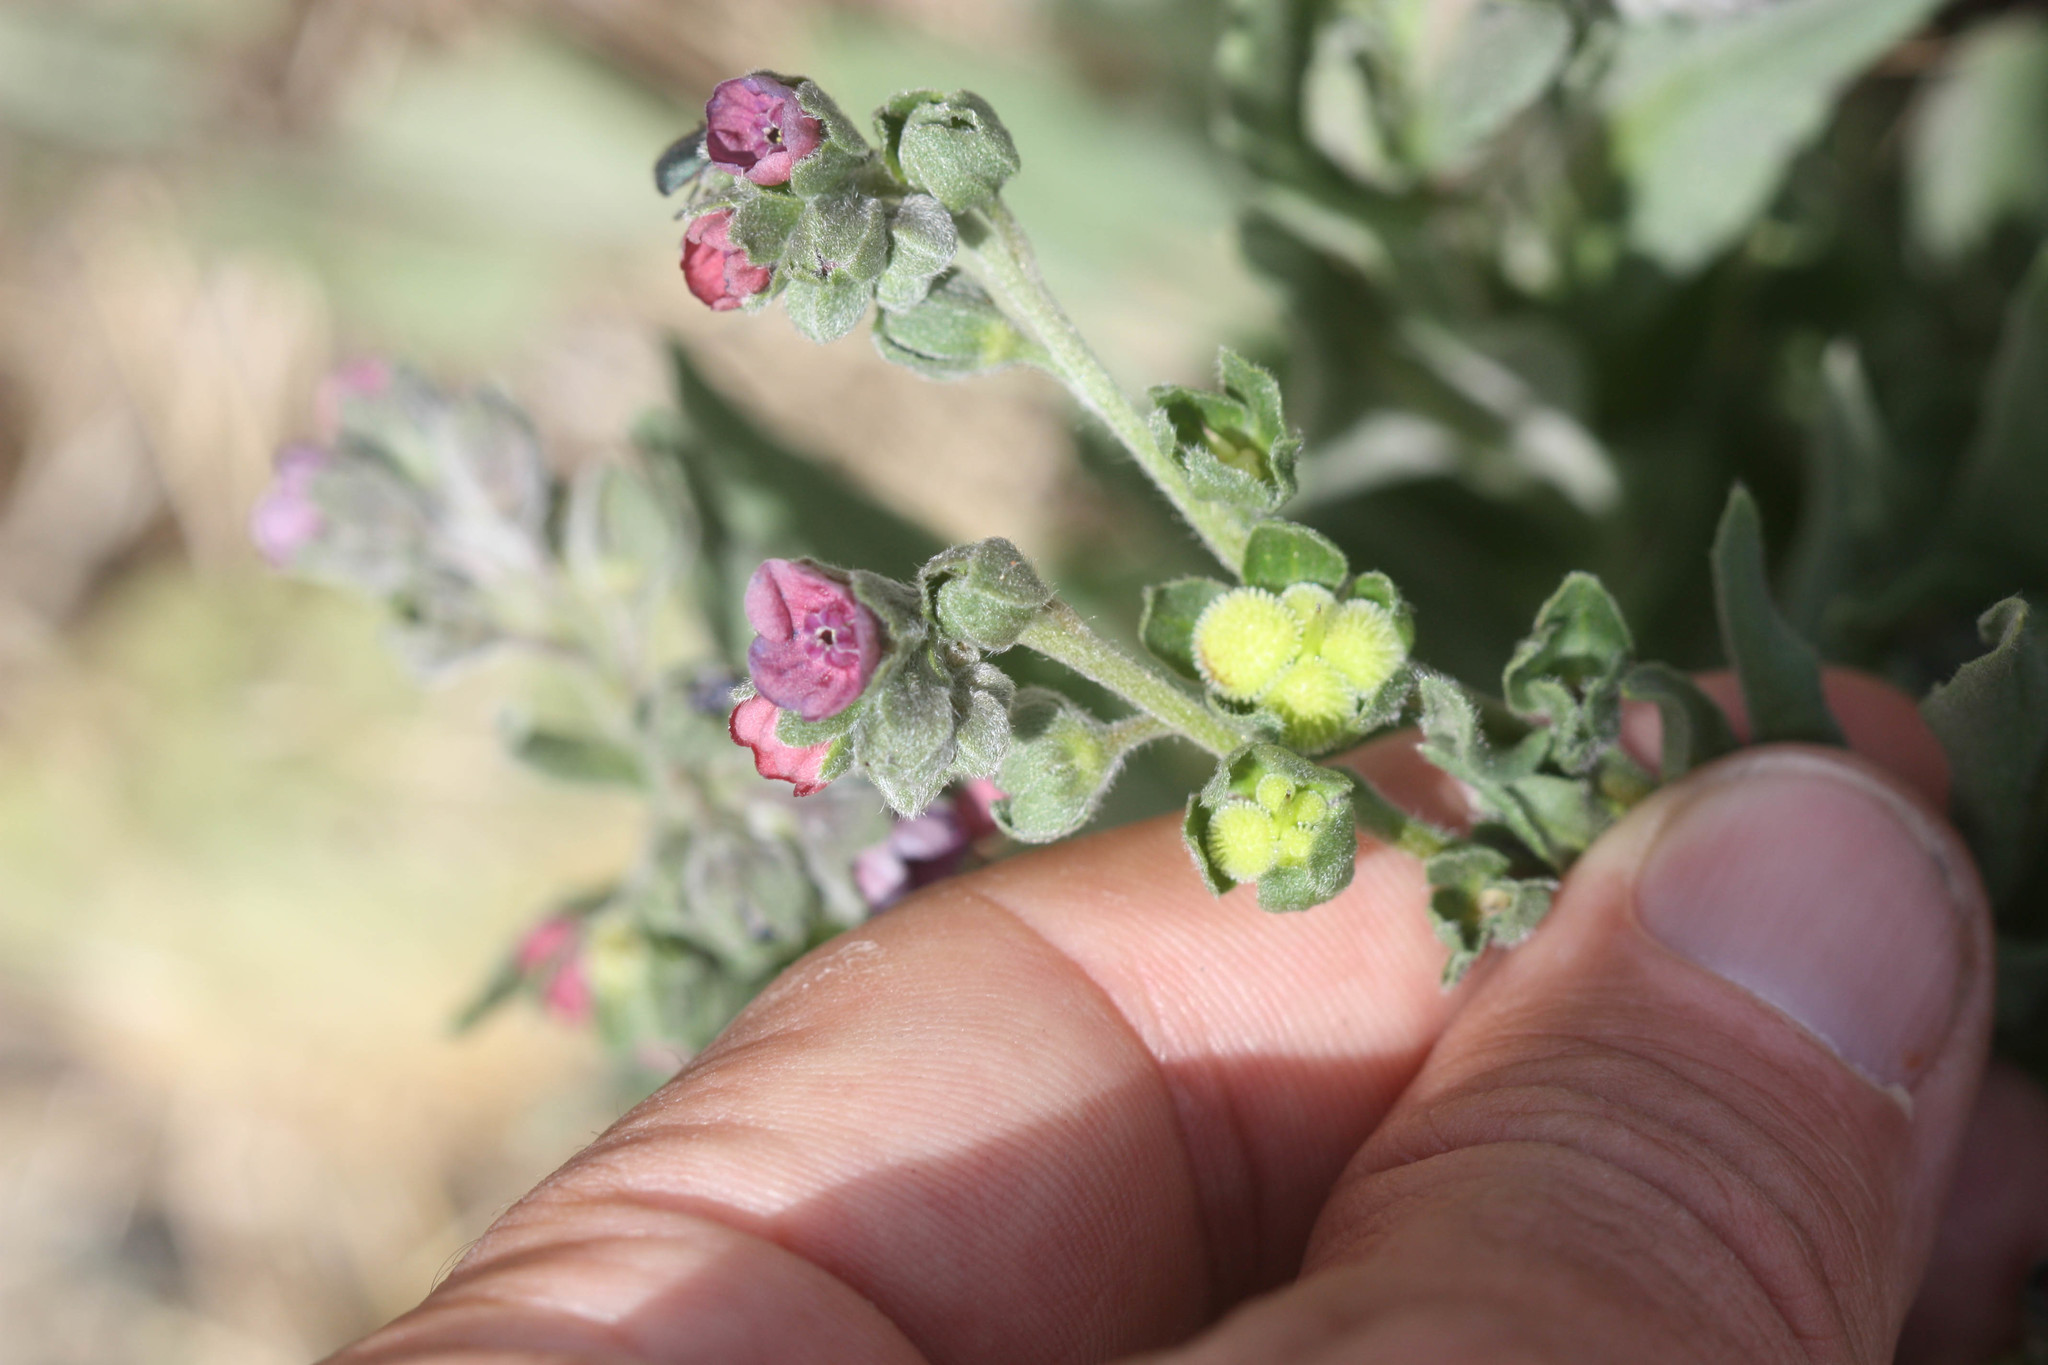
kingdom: Plantae
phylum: Tracheophyta
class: Magnoliopsida
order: Boraginales
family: Boraginaceae
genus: Cynoglossum
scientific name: Cynoglossum officinale
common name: Hound's-tongue
